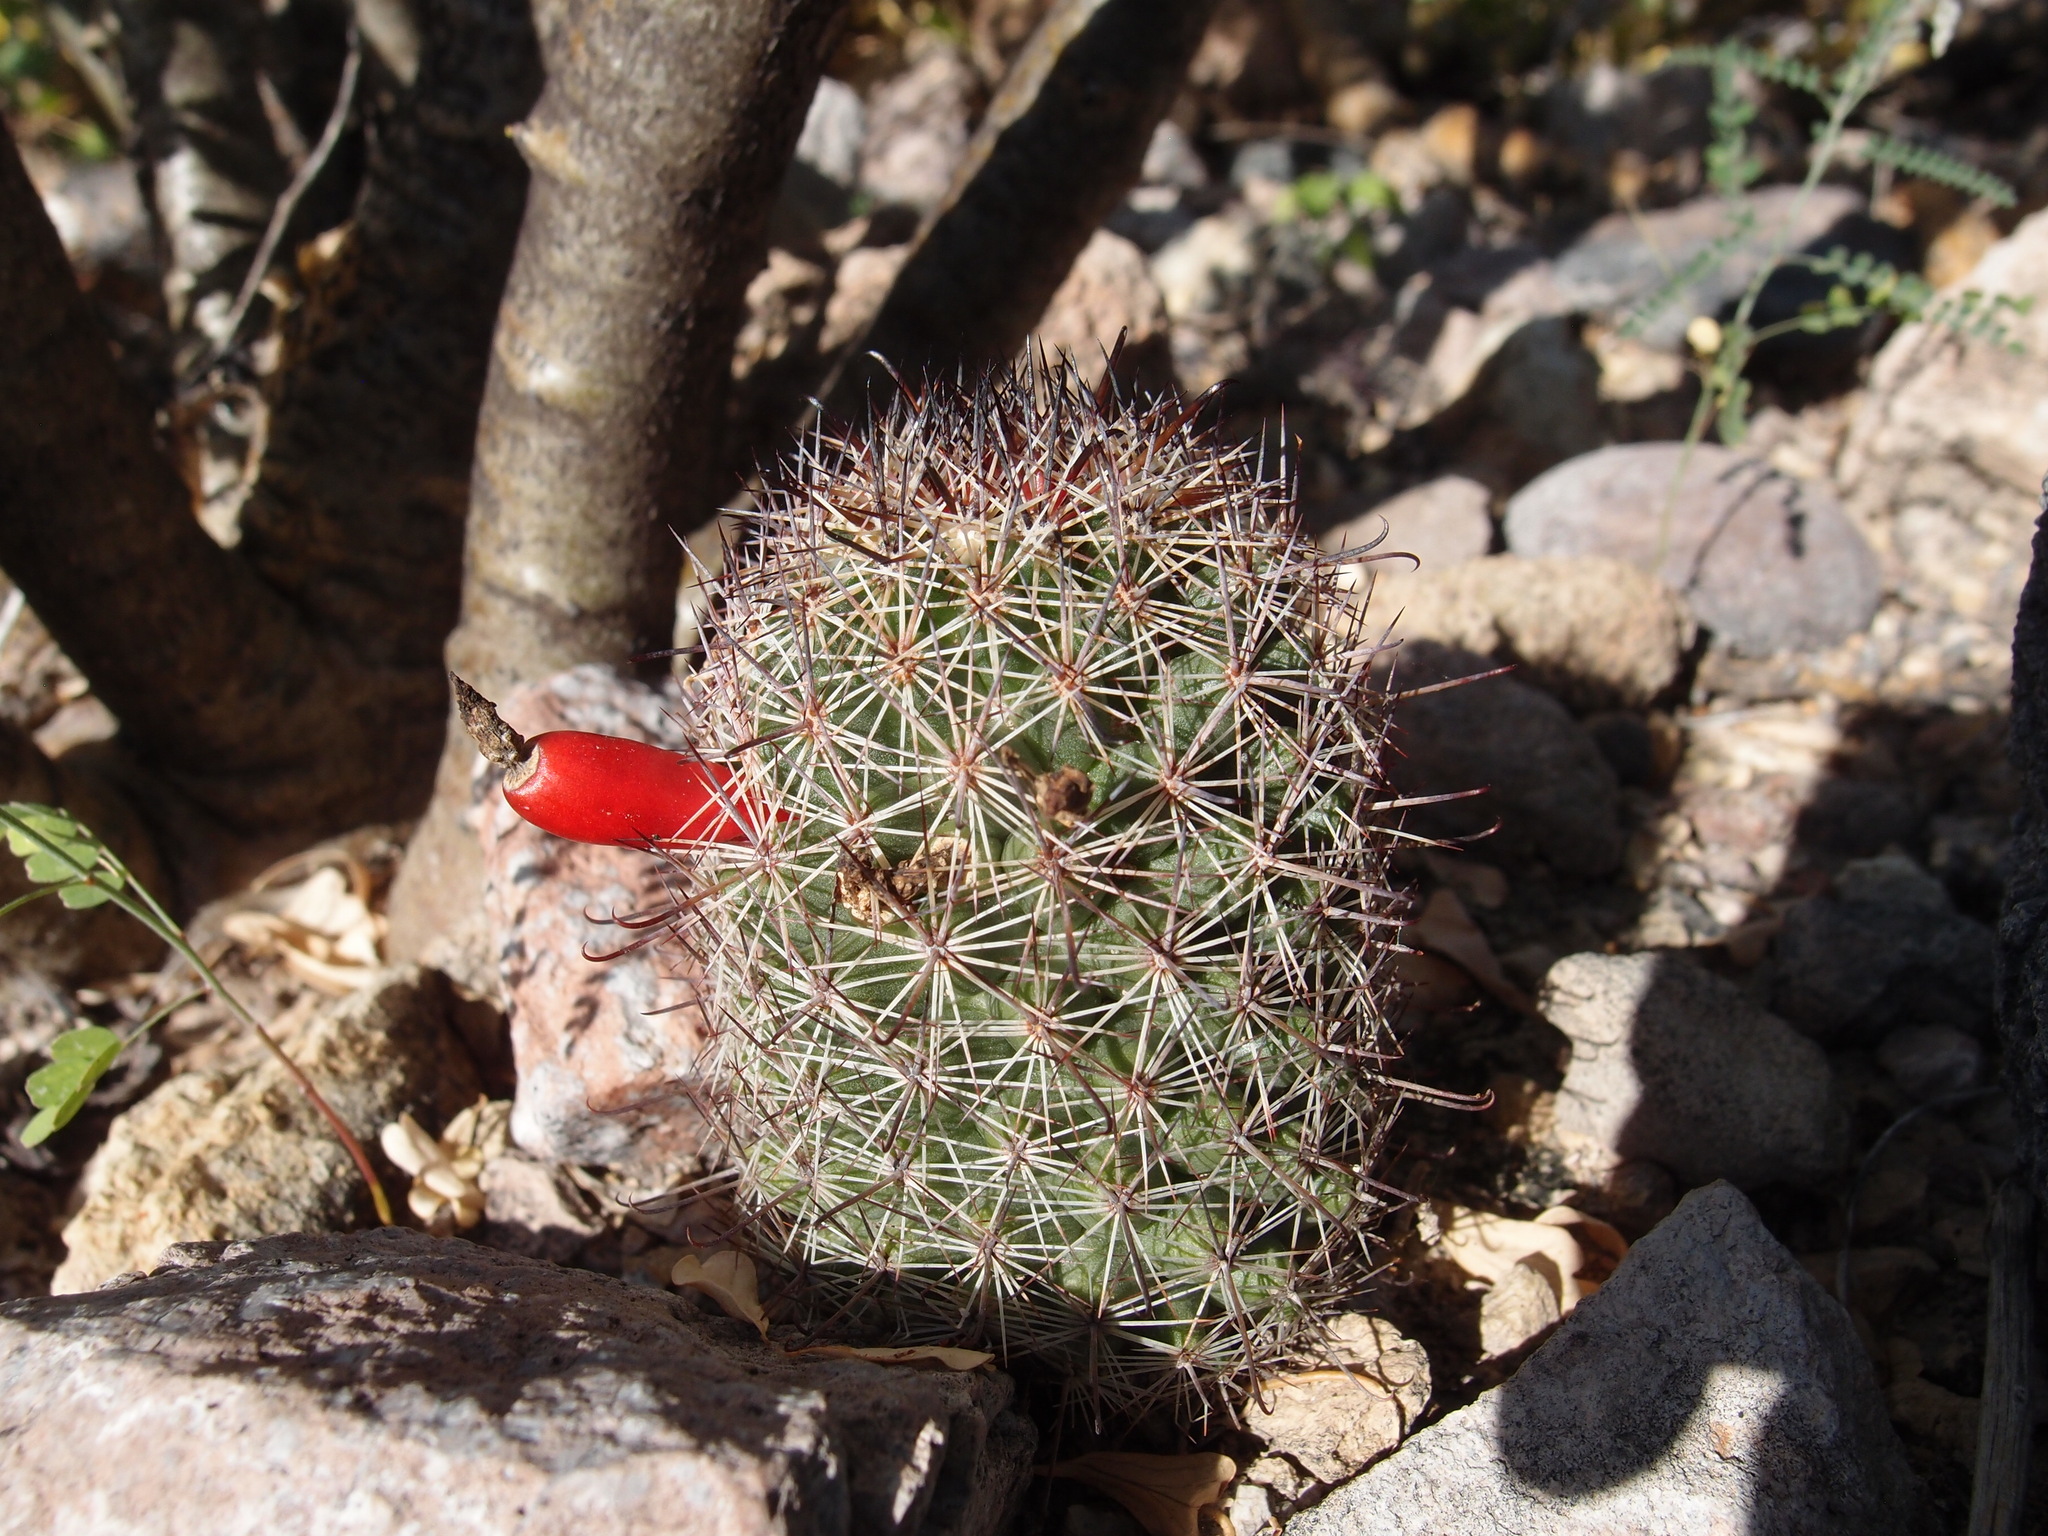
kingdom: Plantae
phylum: Tracheophyta
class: Magnoliopsida
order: Caryophyllales
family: Cactaceae
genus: Cochemiea
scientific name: Cochemiea sheldonii
